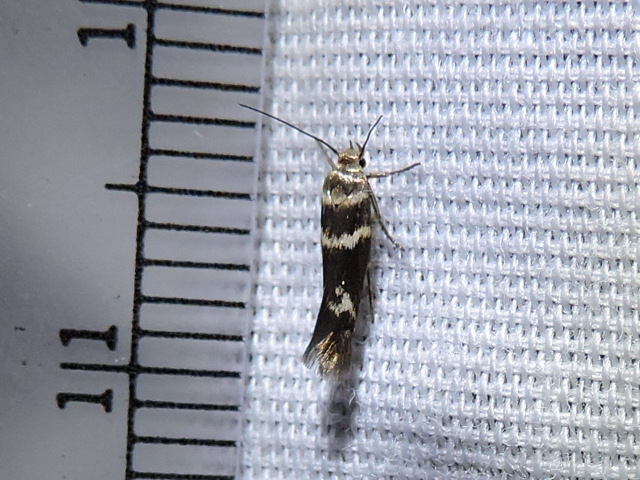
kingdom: Animalia
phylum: Arthropoda
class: Insecta
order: Lepidoptera
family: Scythrididae
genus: Scythris
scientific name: Scythris trivinctella
